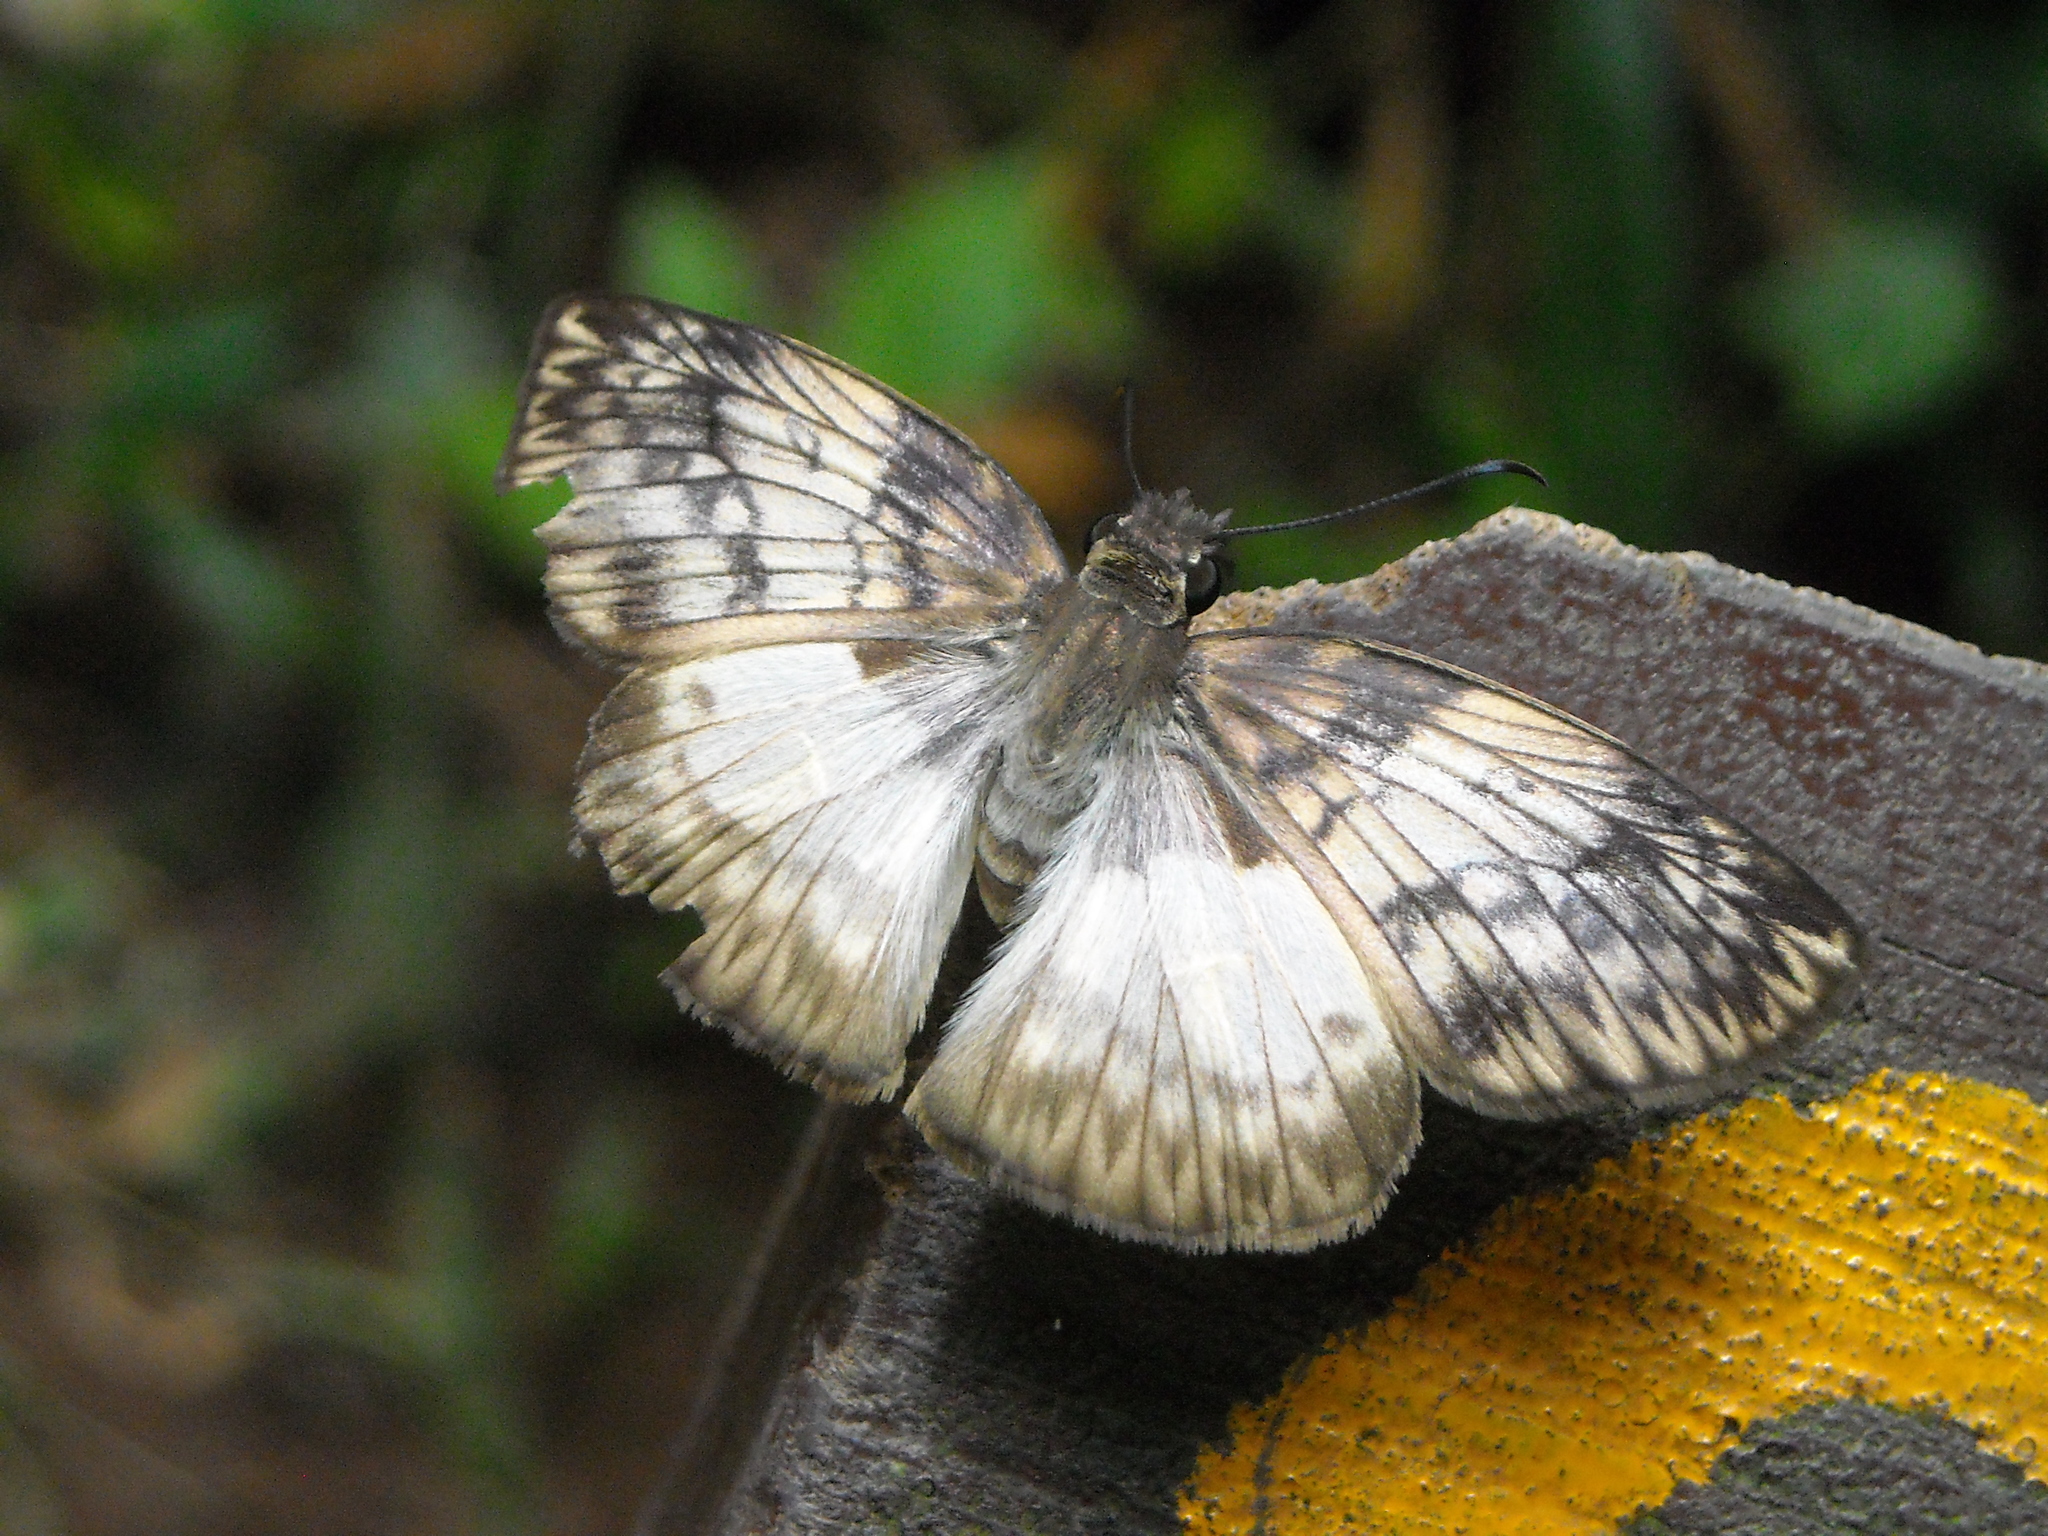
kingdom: Animalia
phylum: Arthropoda
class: Insecta
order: Lepidoptera
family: Hesperiidae
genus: Mylon
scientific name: Mylon maimon
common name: Common mylon
